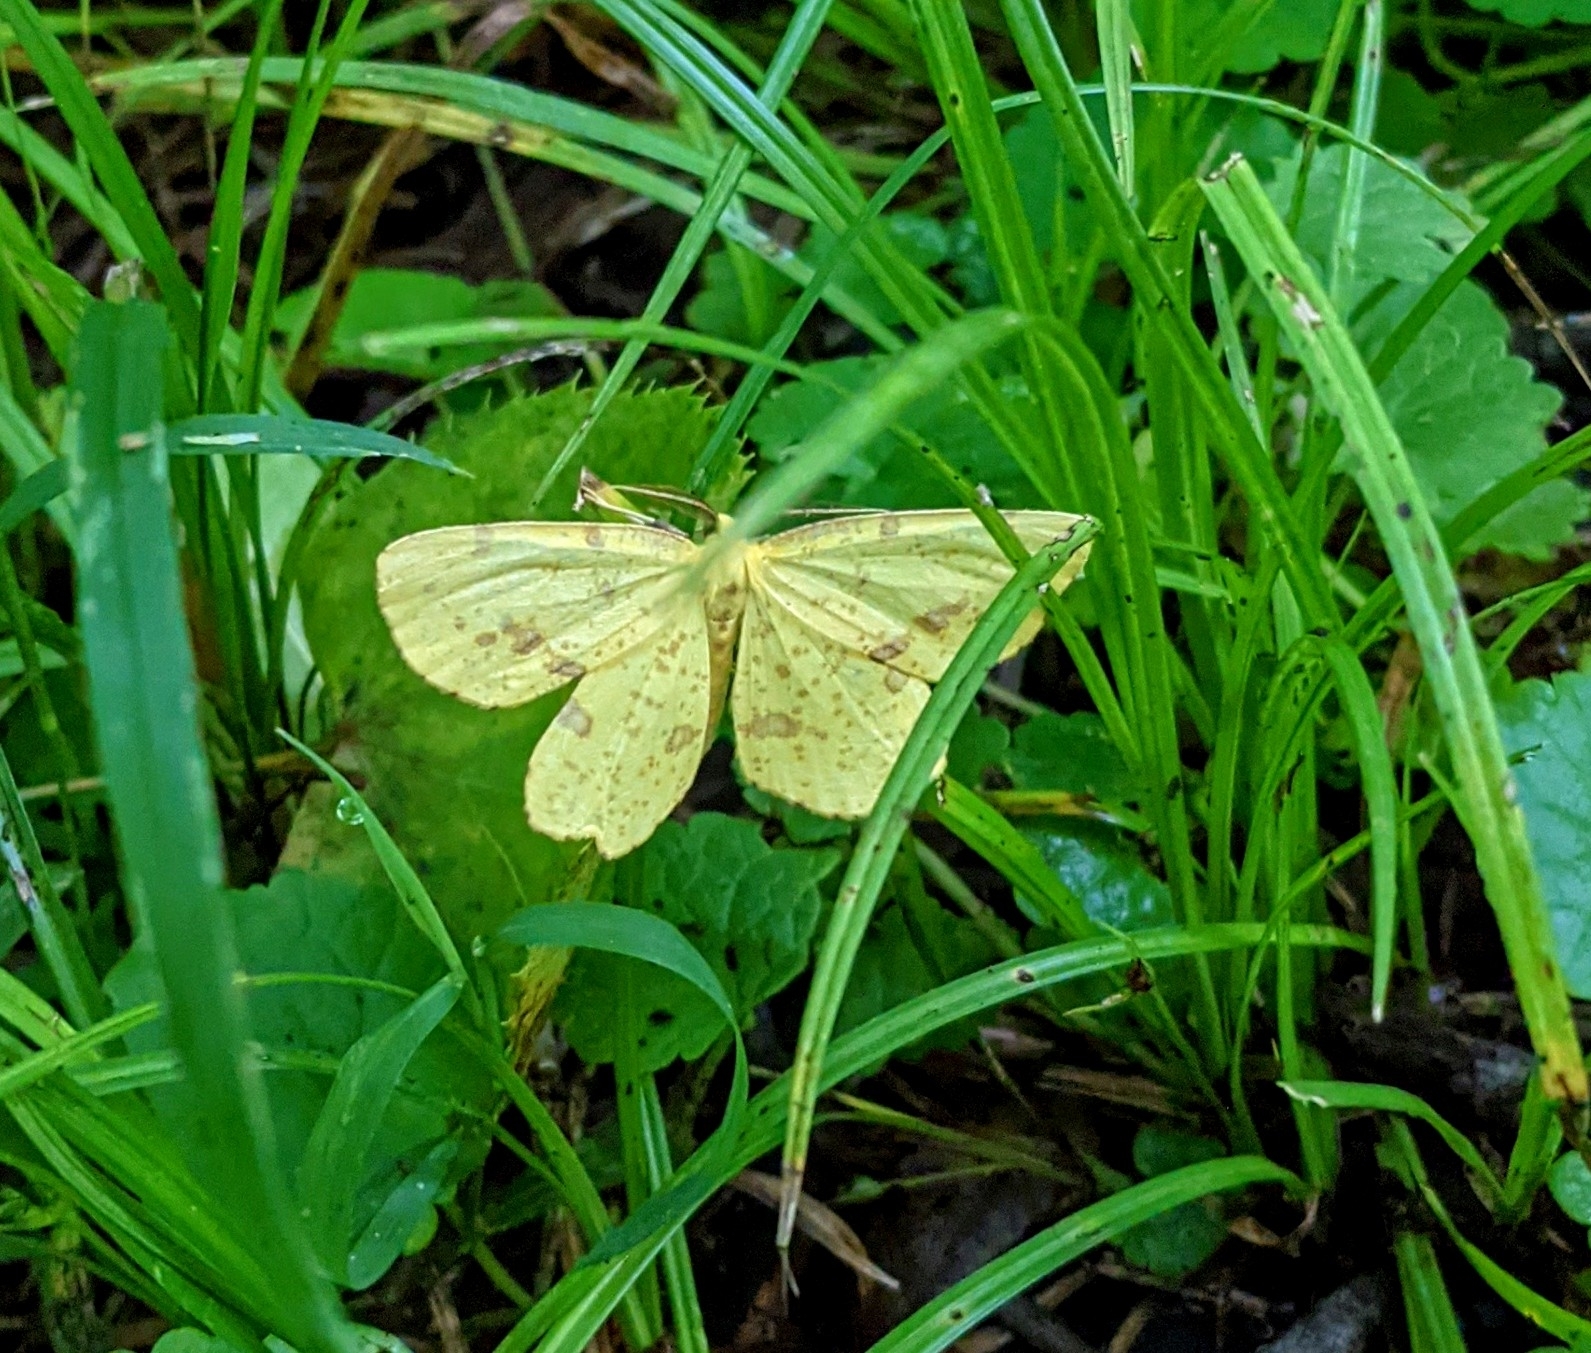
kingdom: Animalia
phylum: Arthropoda
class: Insecta
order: Lepidoptera
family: Geometridae
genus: Xanthotype
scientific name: Xanthotype
